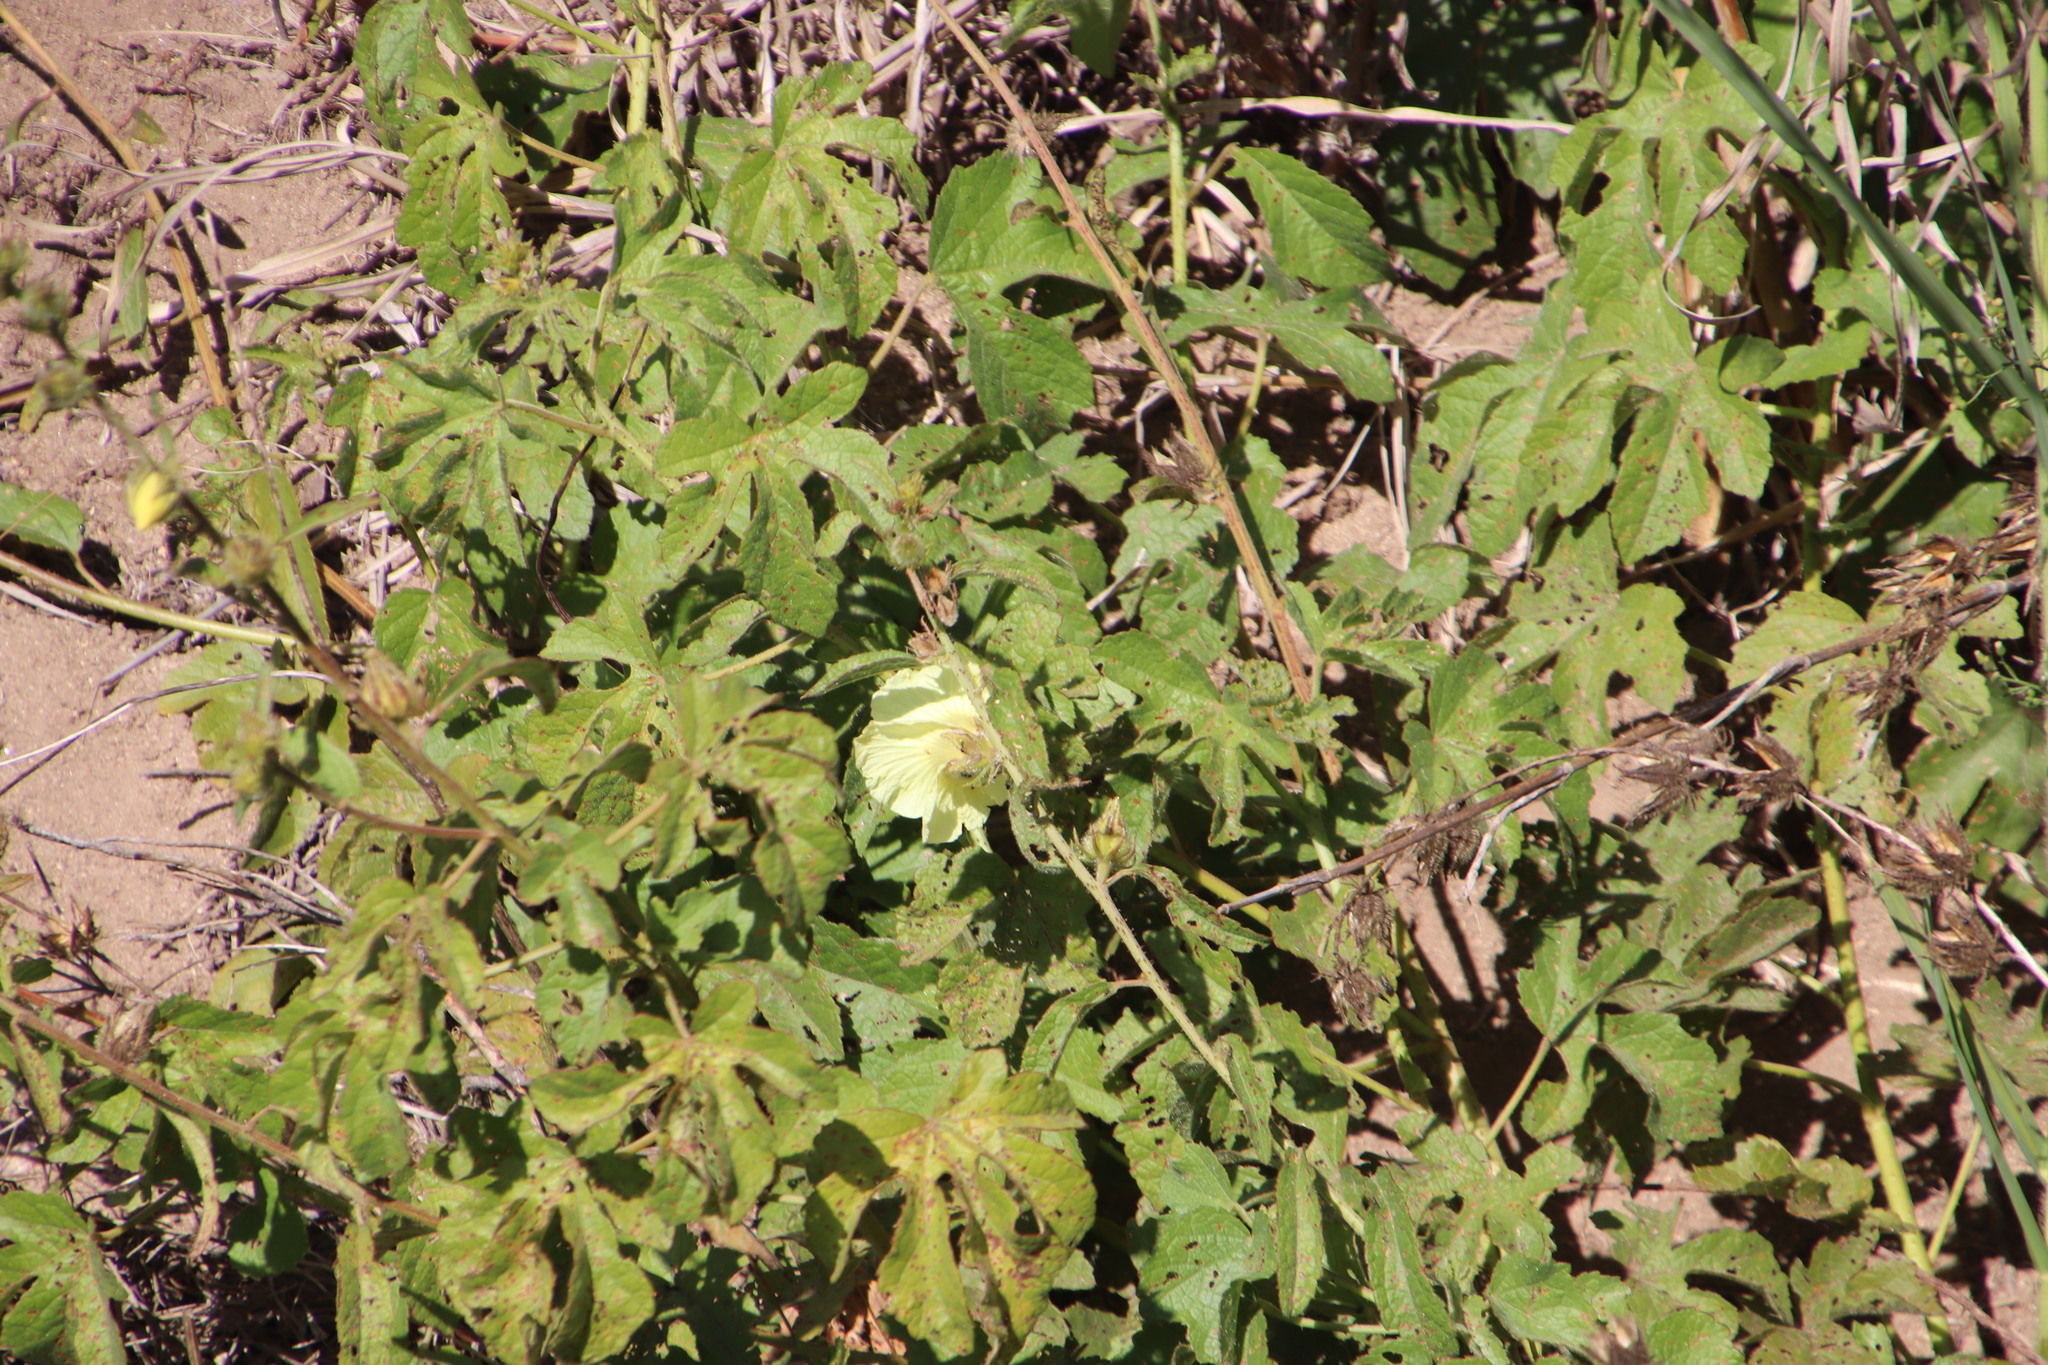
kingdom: Plantae
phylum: Tracheophyta
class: Magnoliopsida
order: Malvales
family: Malvaceae
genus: Hibiscus
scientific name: Hibiscus diversifolius
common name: Cape hibiscus
